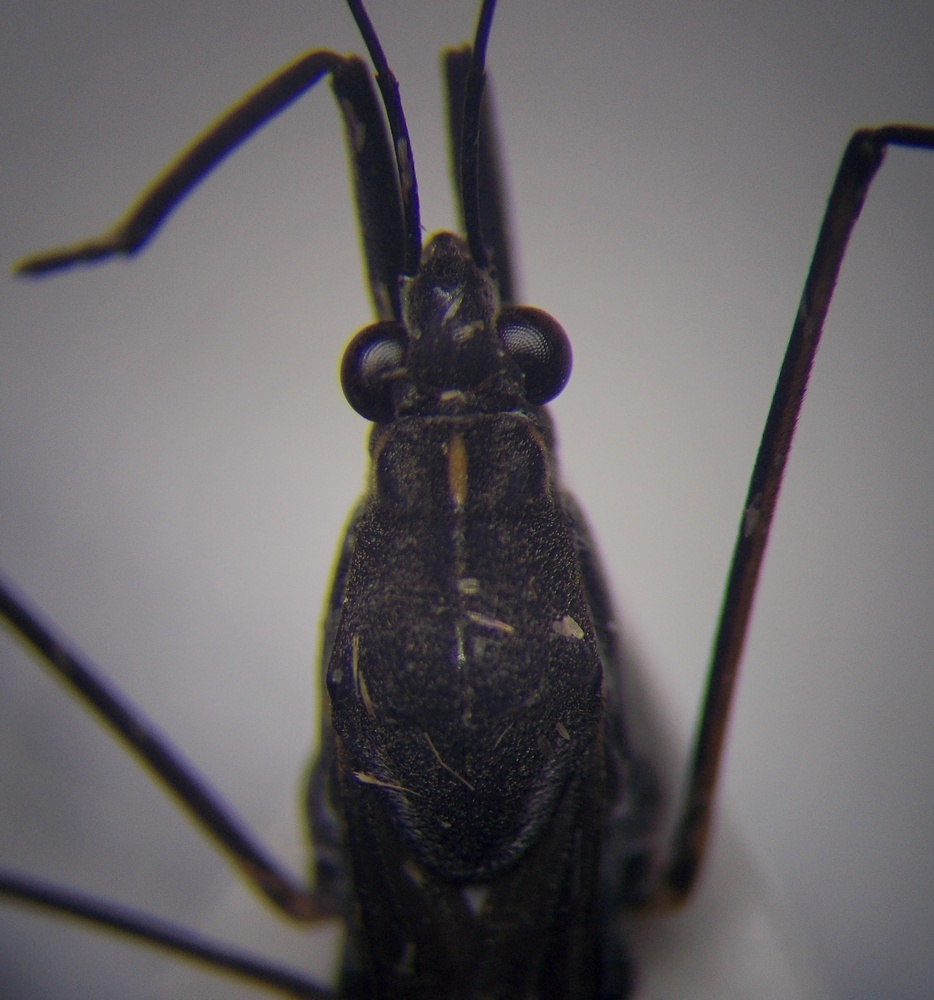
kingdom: Animalia
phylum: Arthropoda
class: Insecta
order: Hemiptera
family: Gerridae
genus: Gerris
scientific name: Gerris argentatus
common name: Little pondskater
